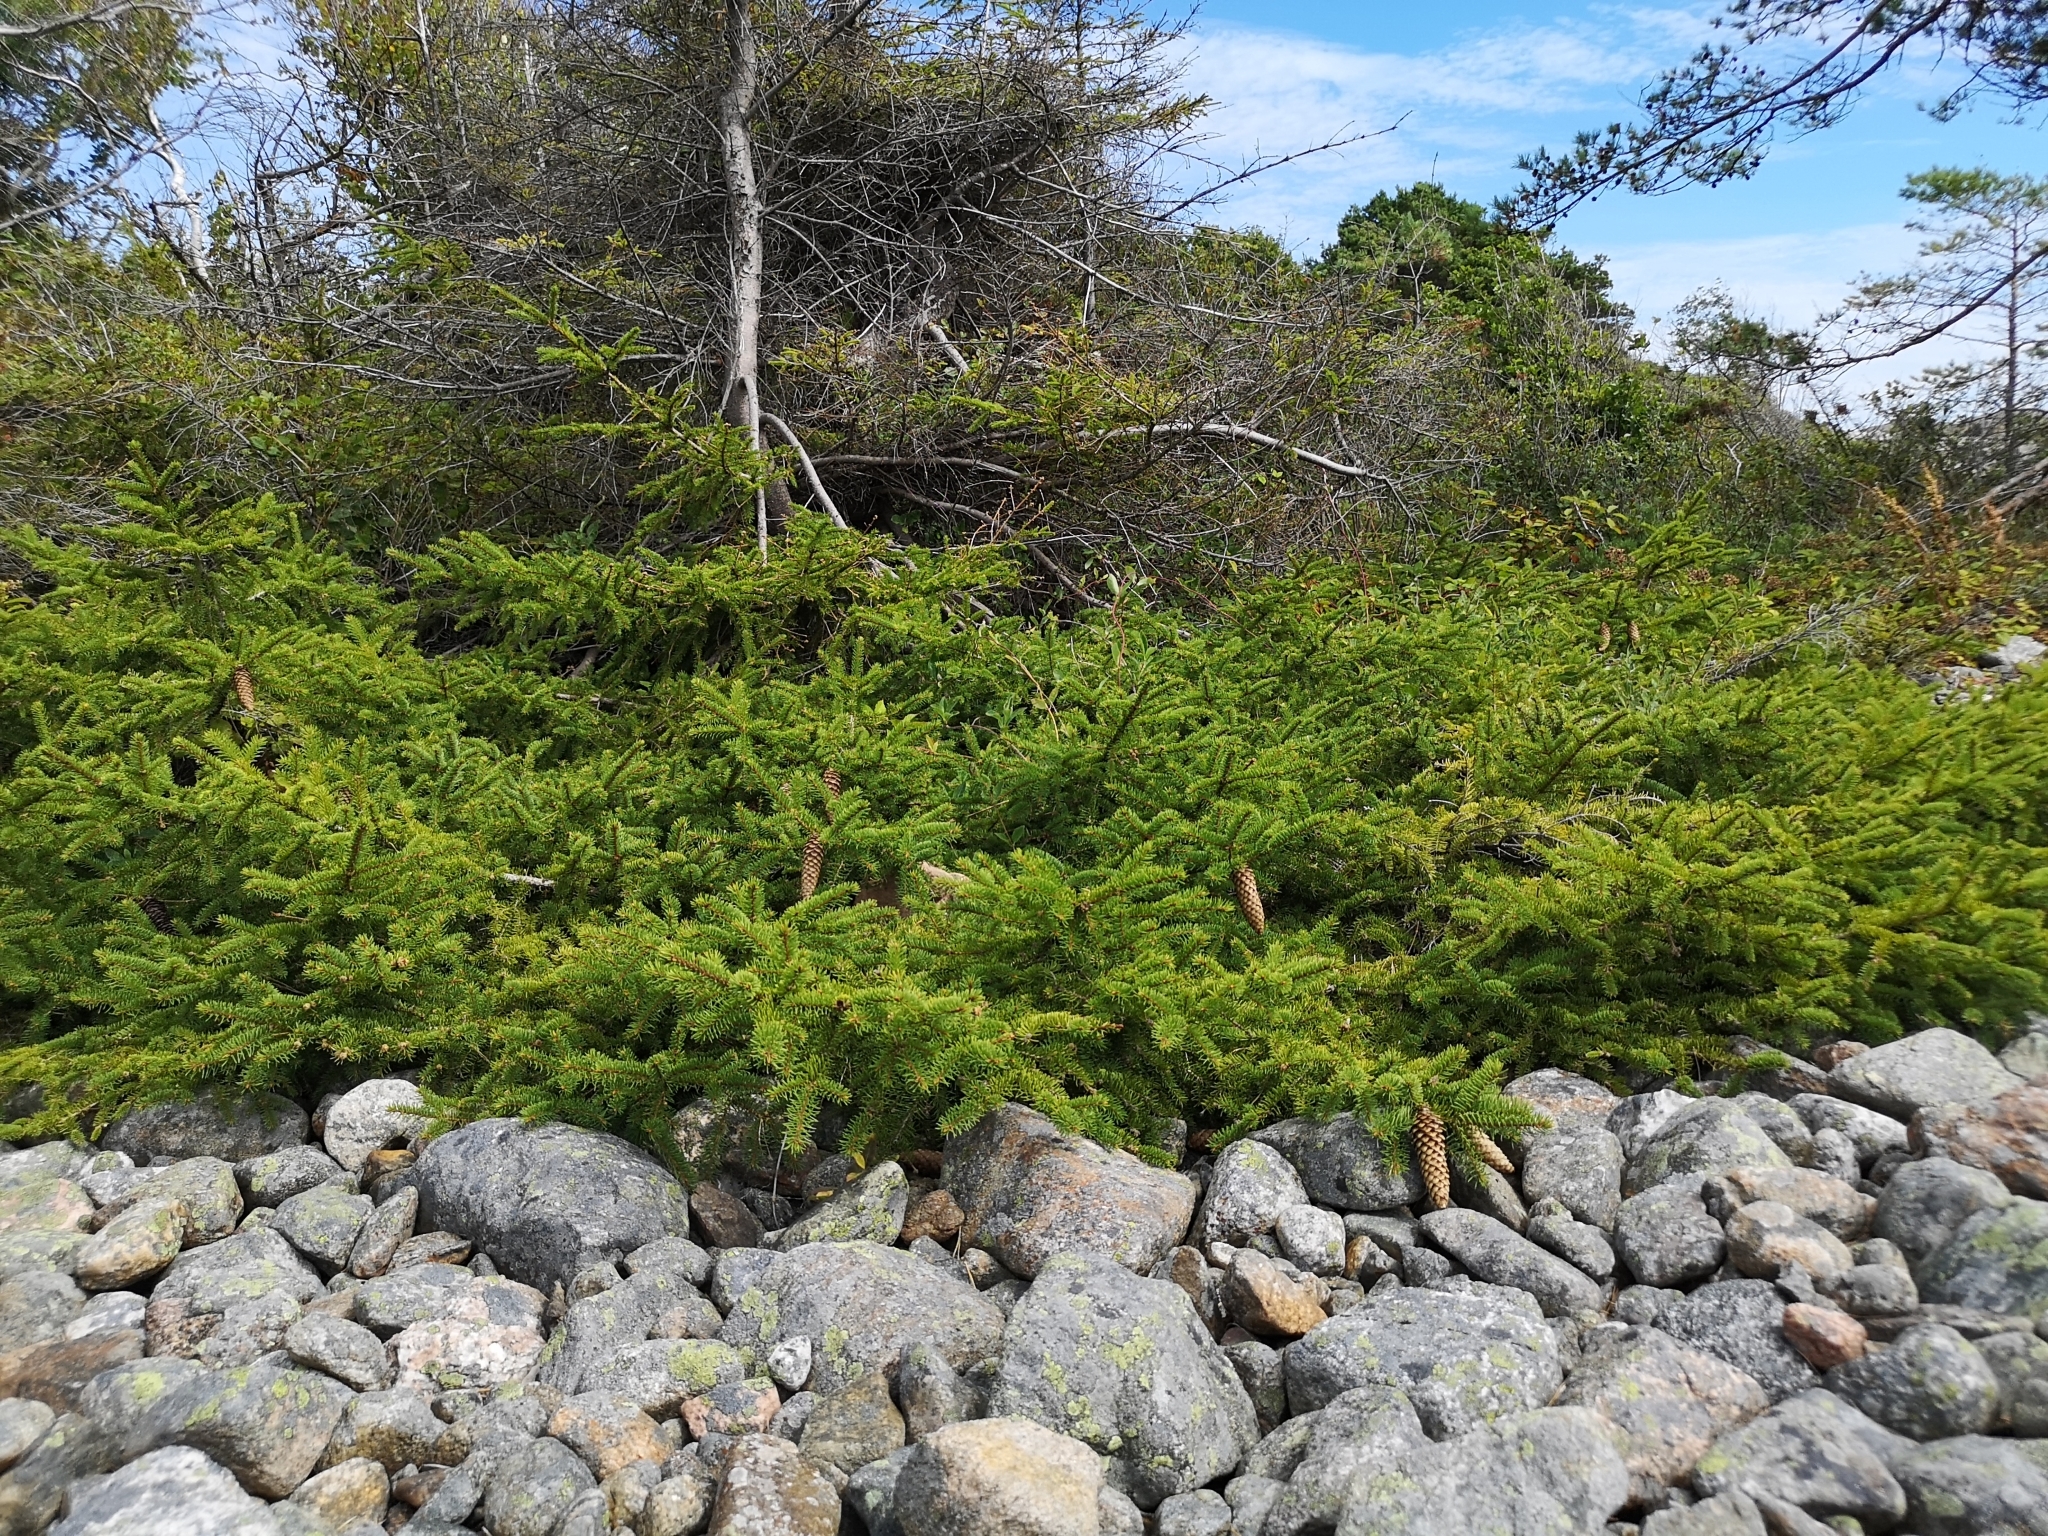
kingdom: Plantae
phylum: Tracheophyta
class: Pinopsida
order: Pinales
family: Pinaceae
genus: Picea
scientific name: Picea abies
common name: Norway spruce
